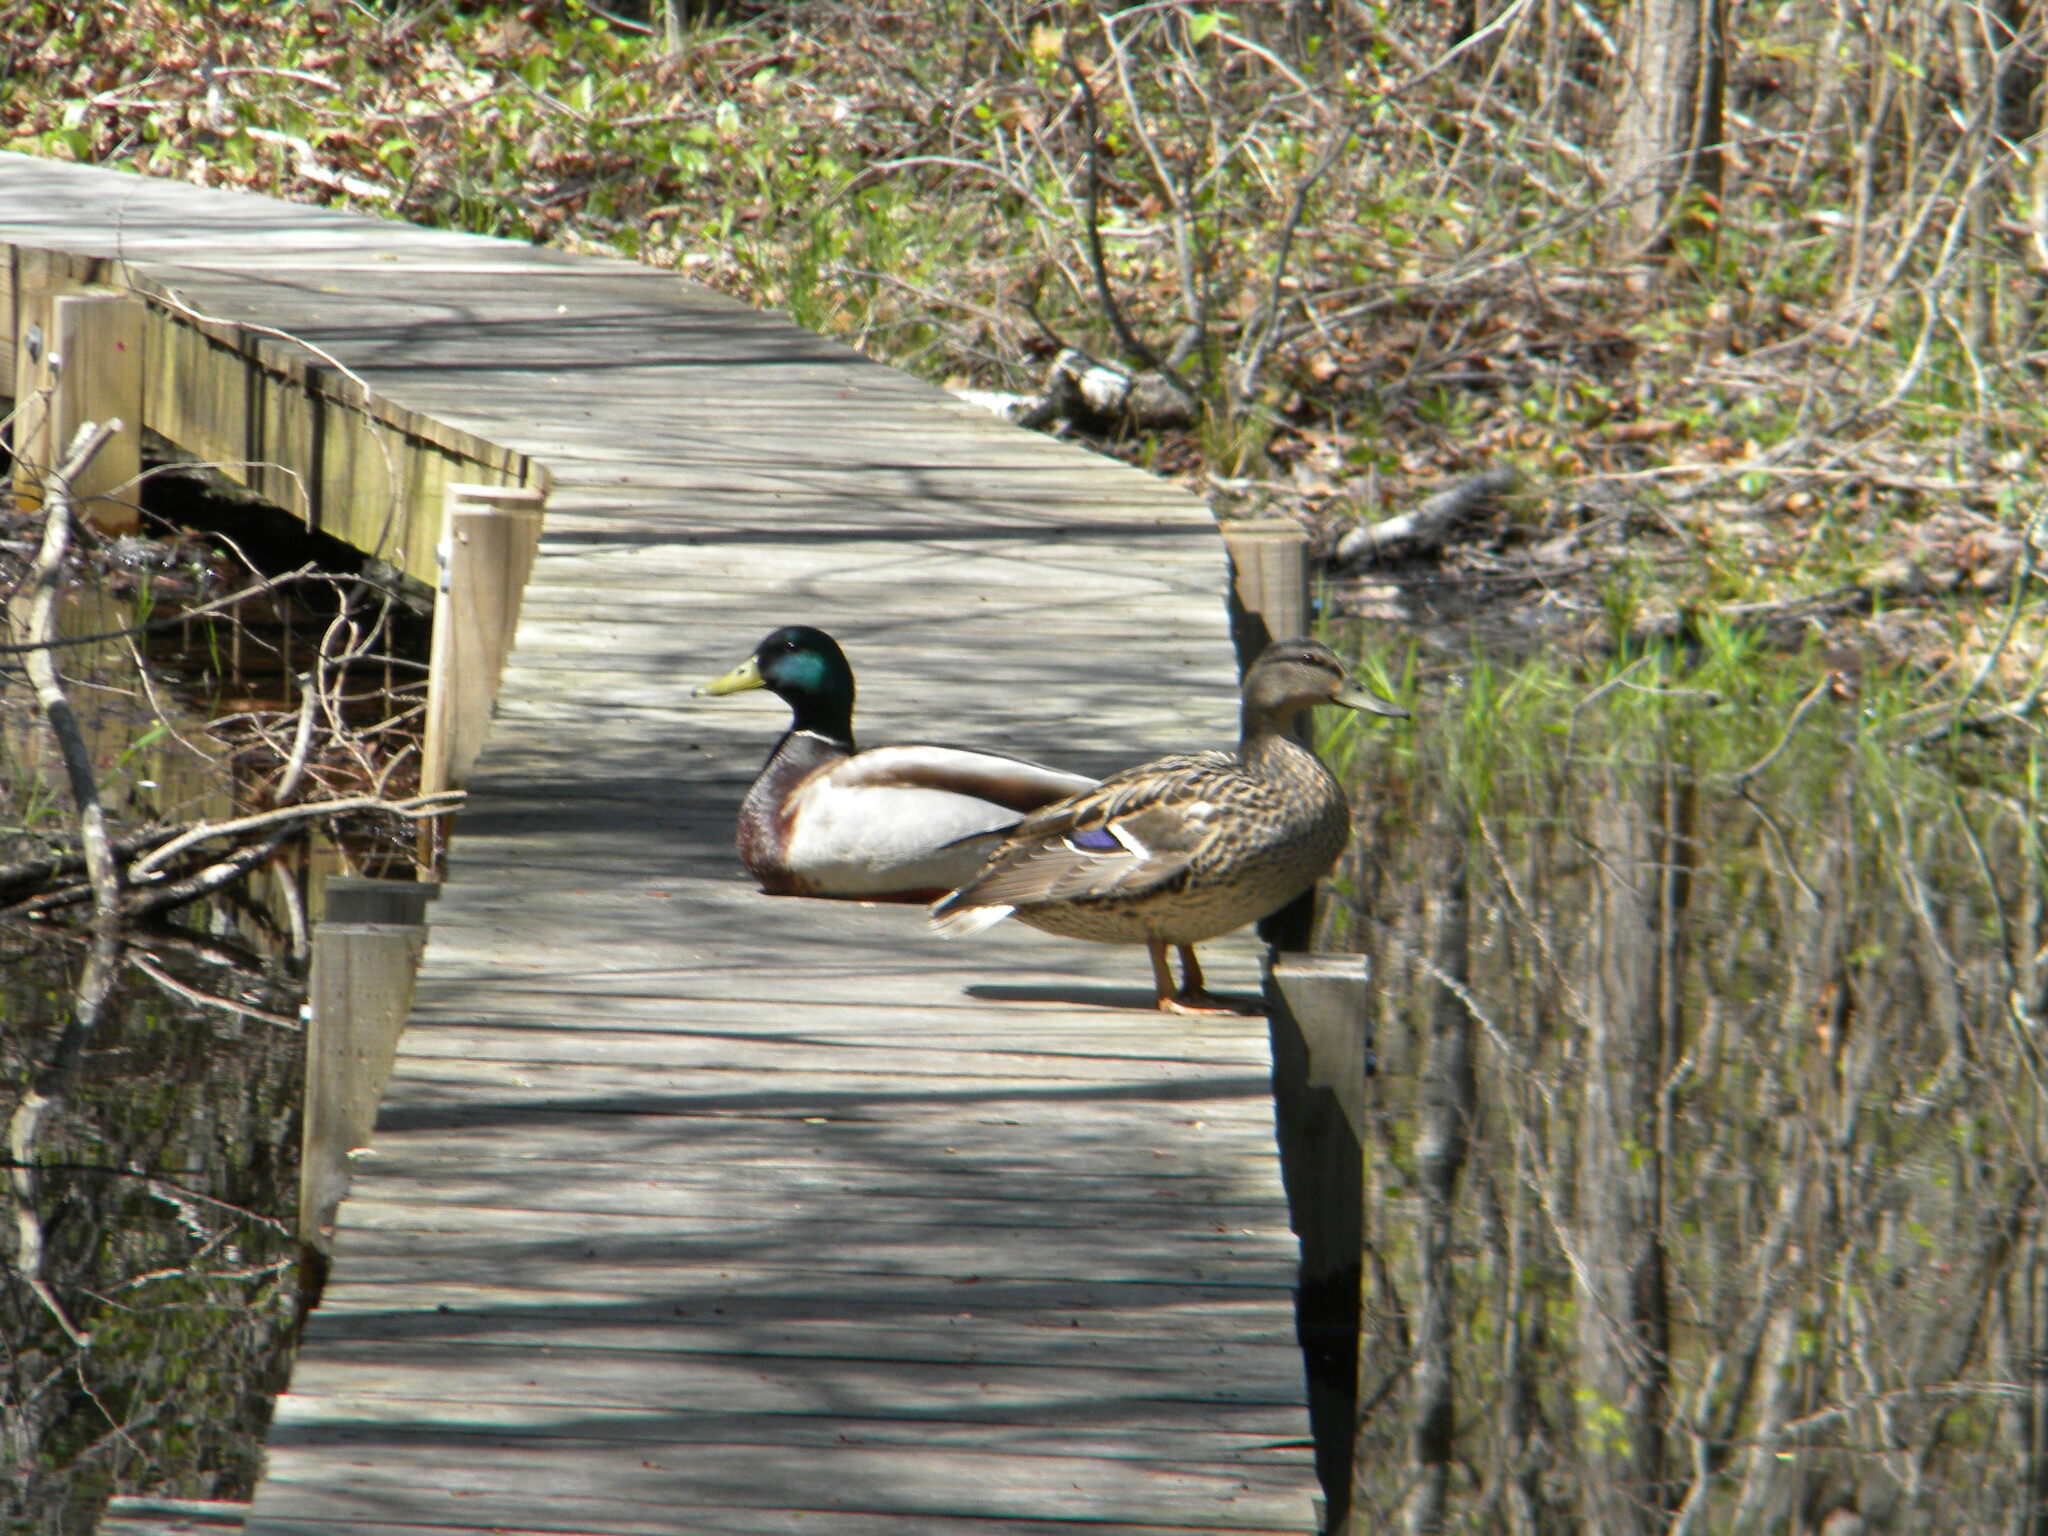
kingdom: Animalia
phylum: Chordata
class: Aves
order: Anseriformes
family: Anatidae
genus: Anas
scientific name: Anas platyrhynchos
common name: Mallard
